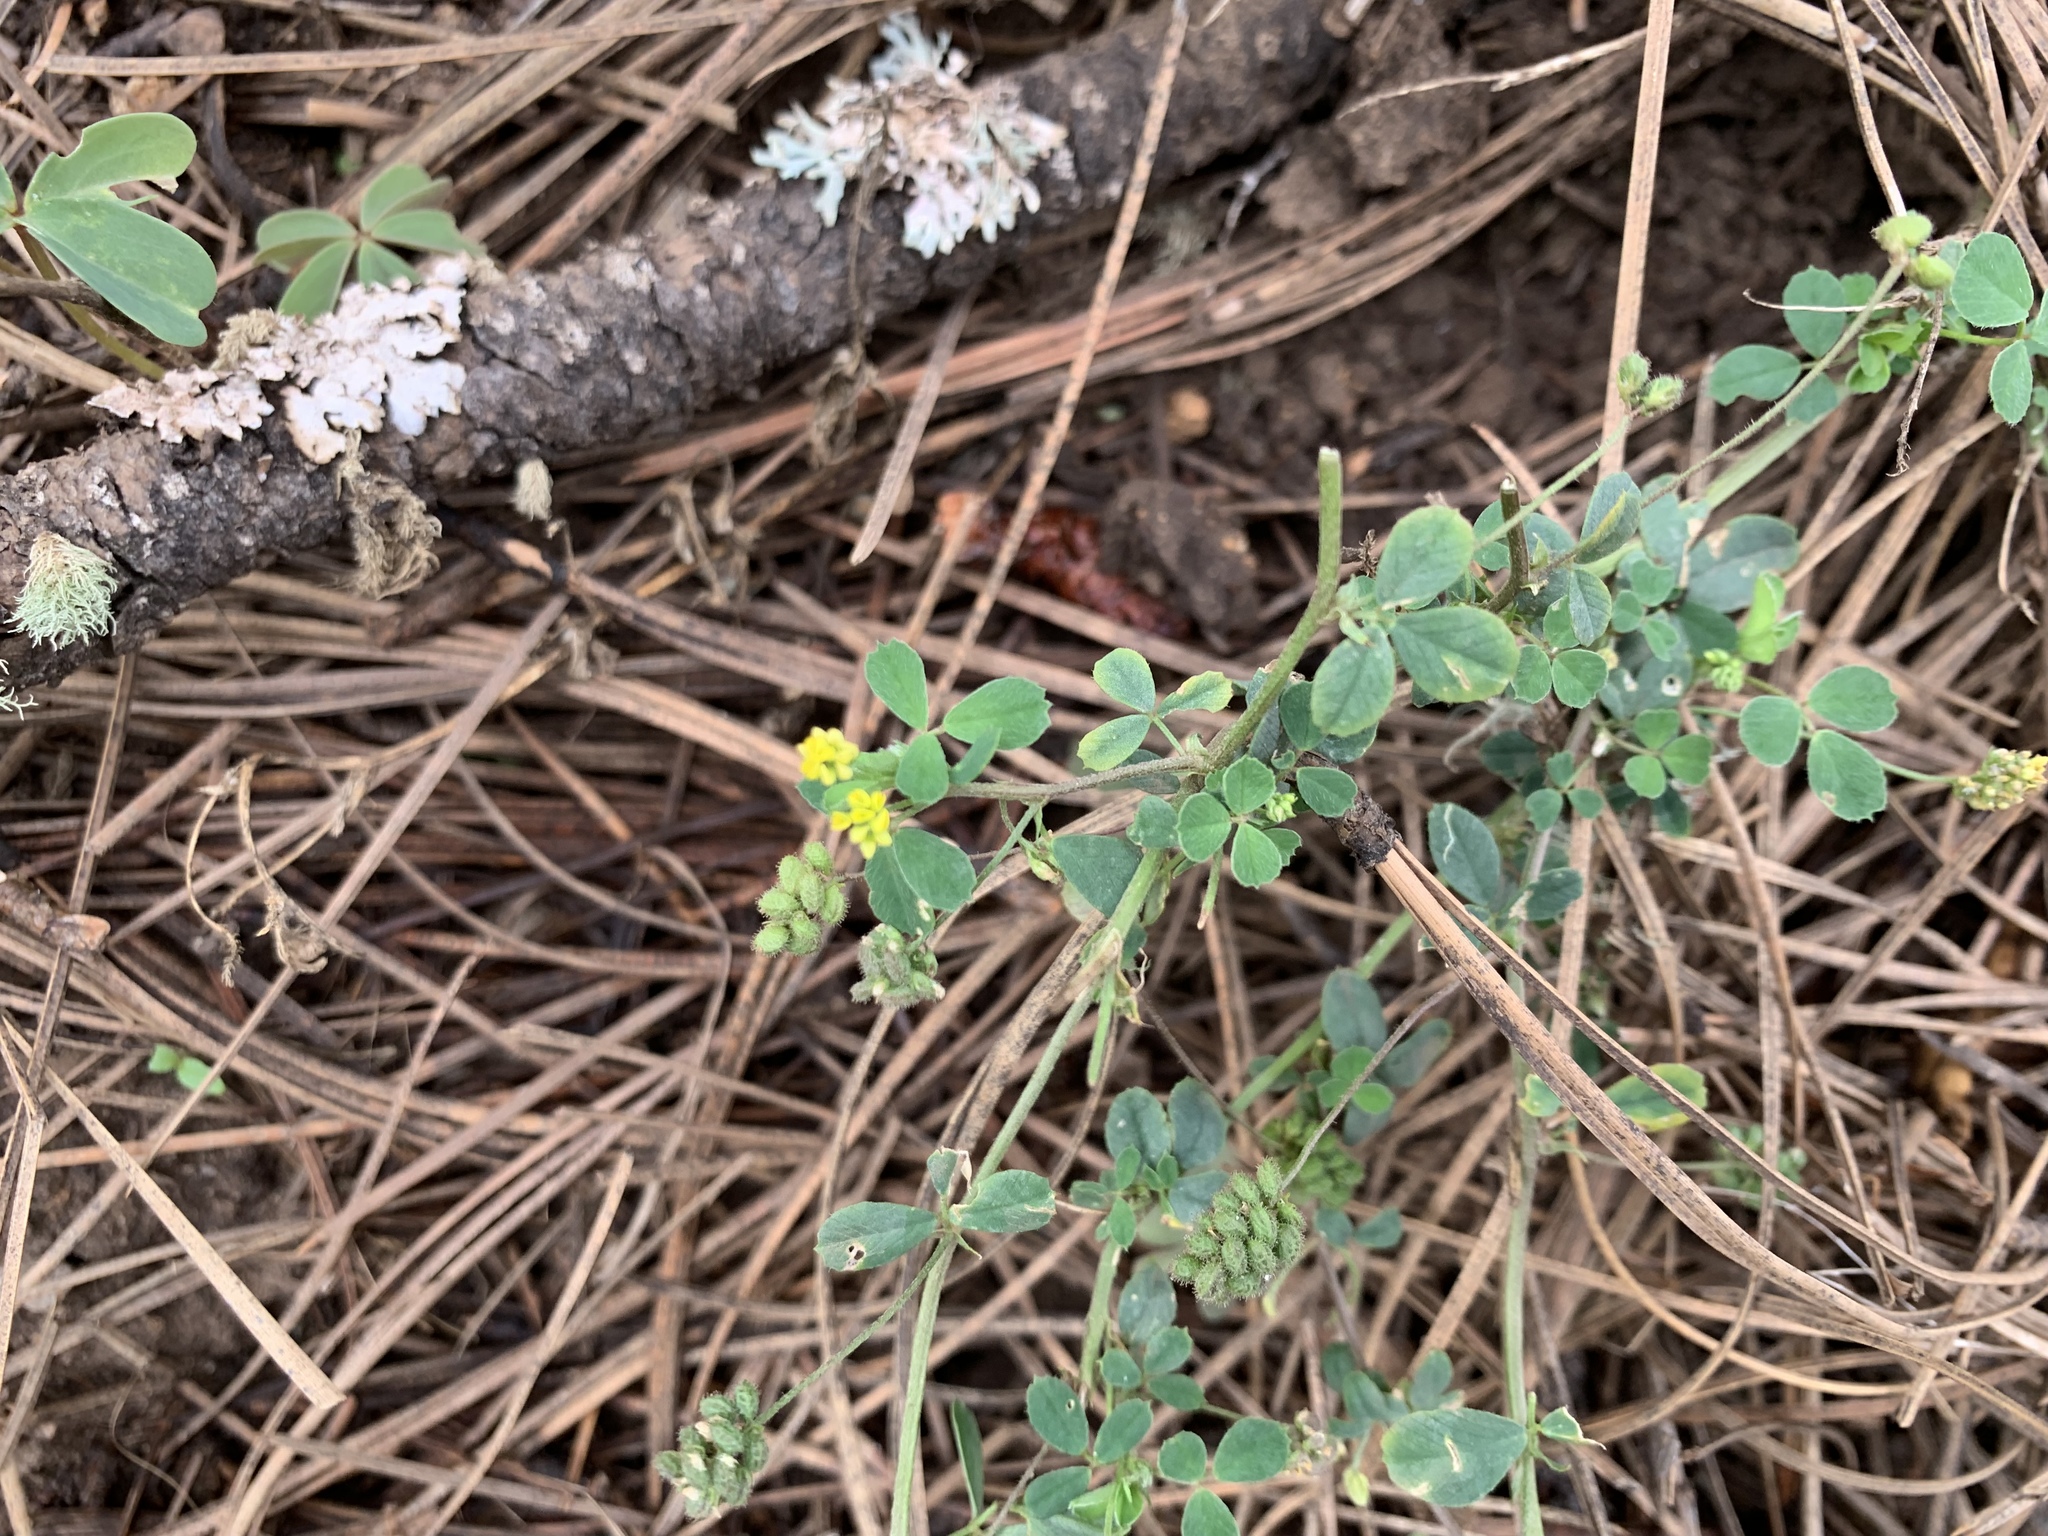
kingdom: Plantae
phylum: Tracheophyta
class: Magnoliopsida
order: Fabales
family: Fabaceae
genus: Medicago
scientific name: Medicago lupulina
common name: Black medick
